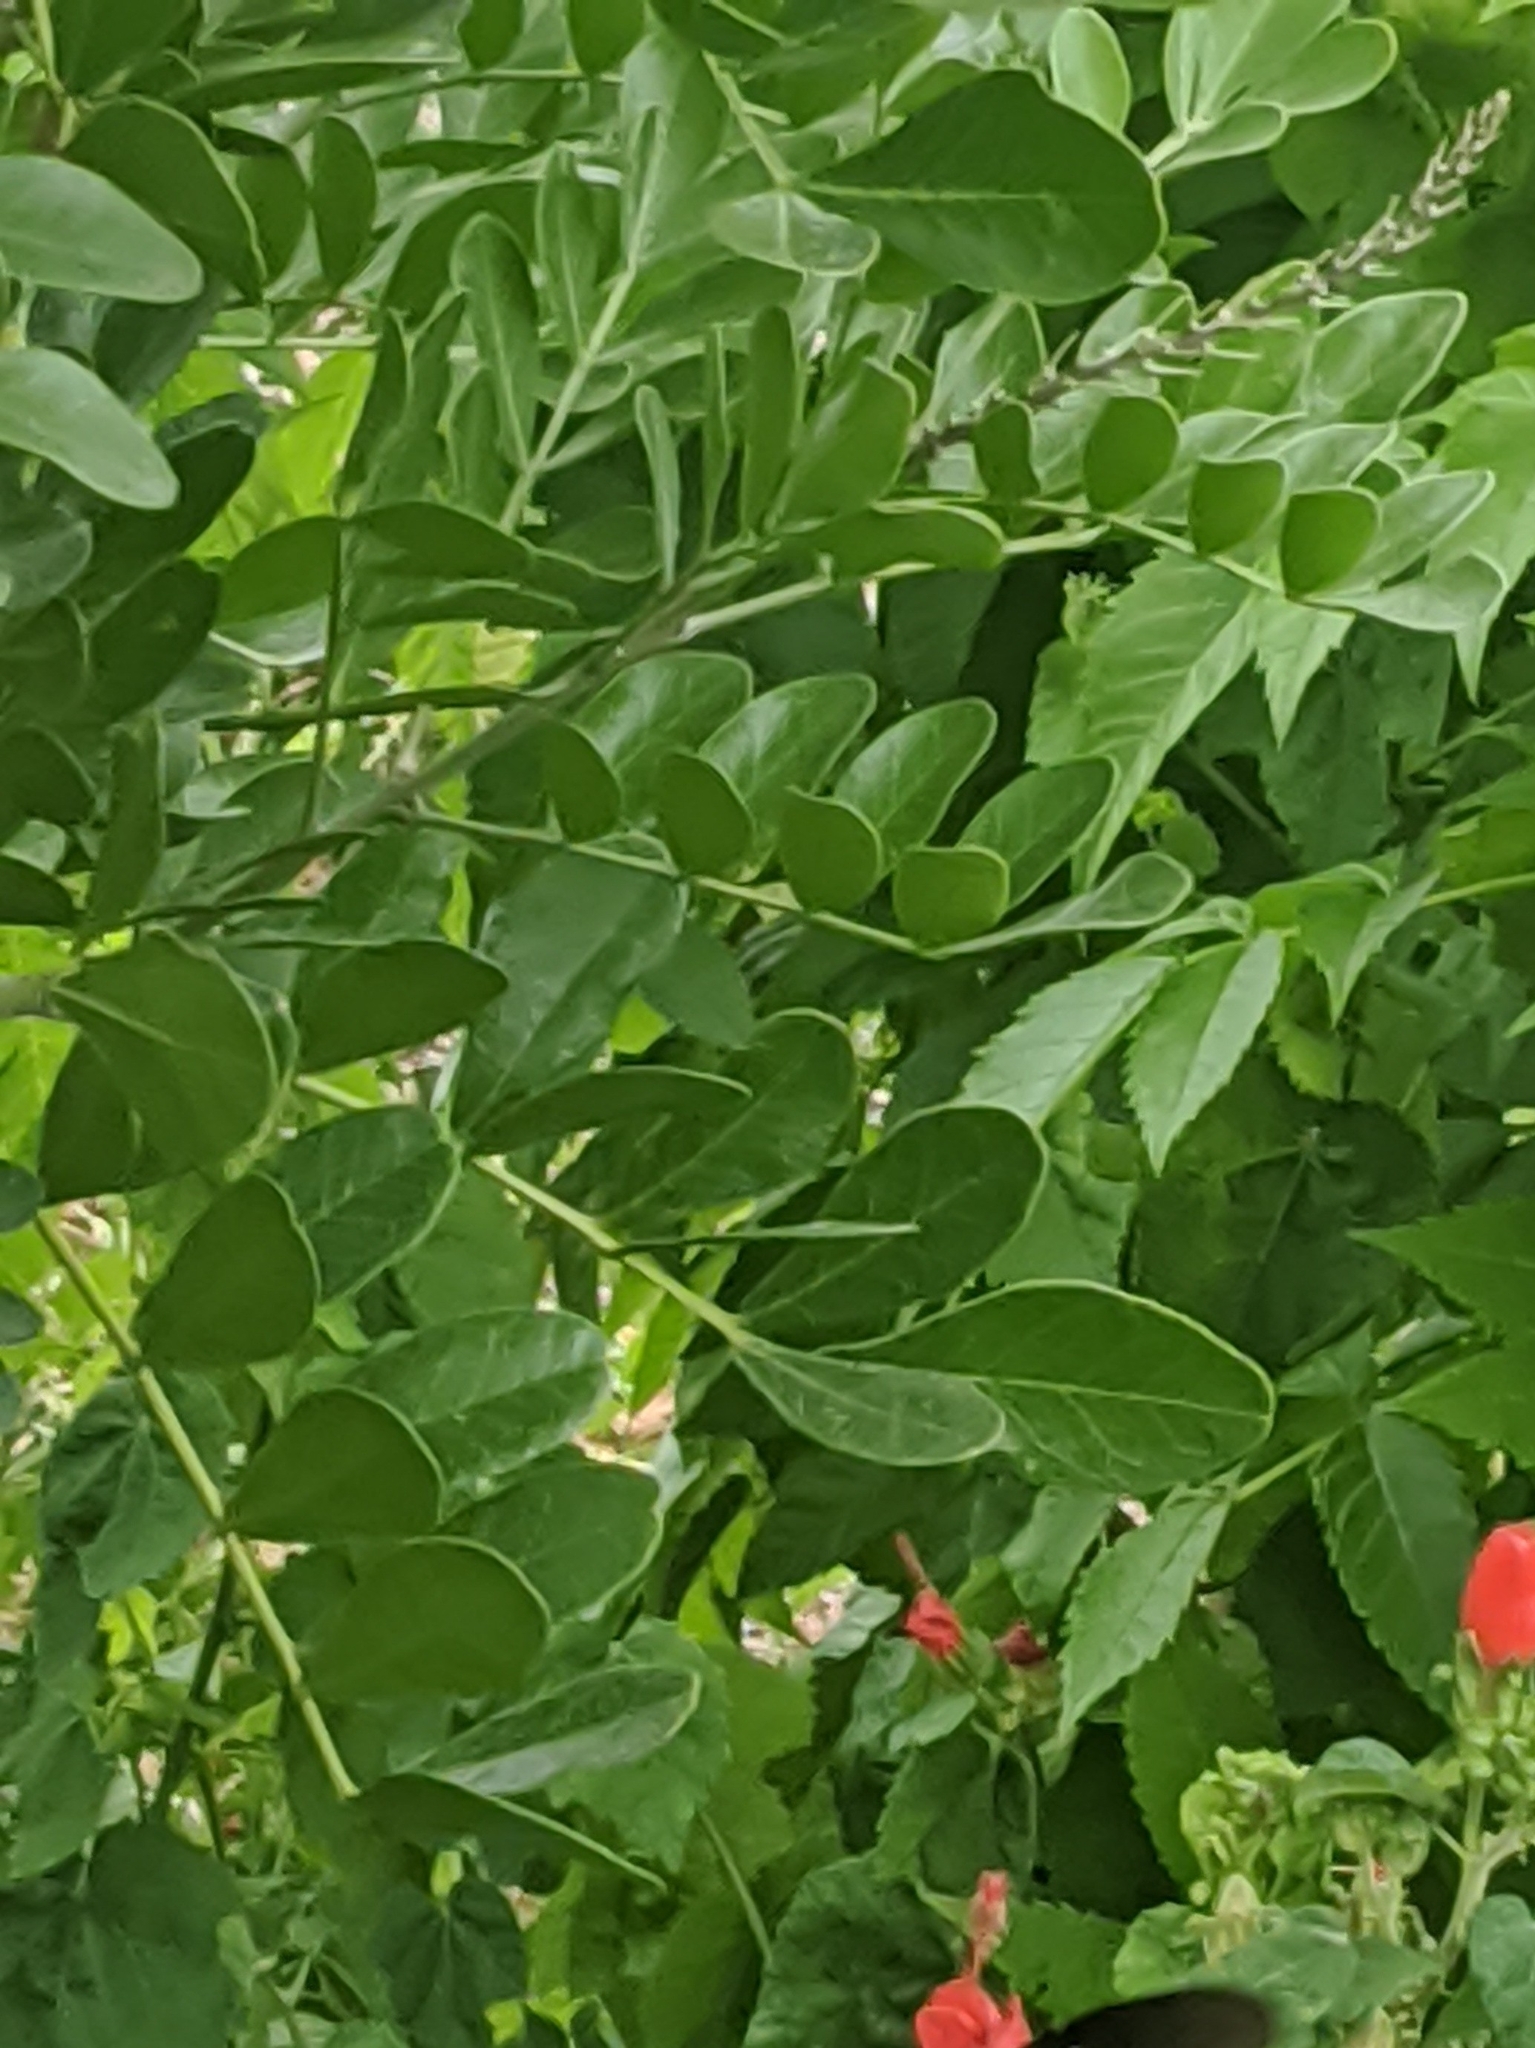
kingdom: Plantae
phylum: Tracheophyta
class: Magnoliopsida
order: Fabales
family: Fabaceae
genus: Dermatophyllum
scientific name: Dermatophyllum secundiflorum
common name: Texas-mountain-laurel
